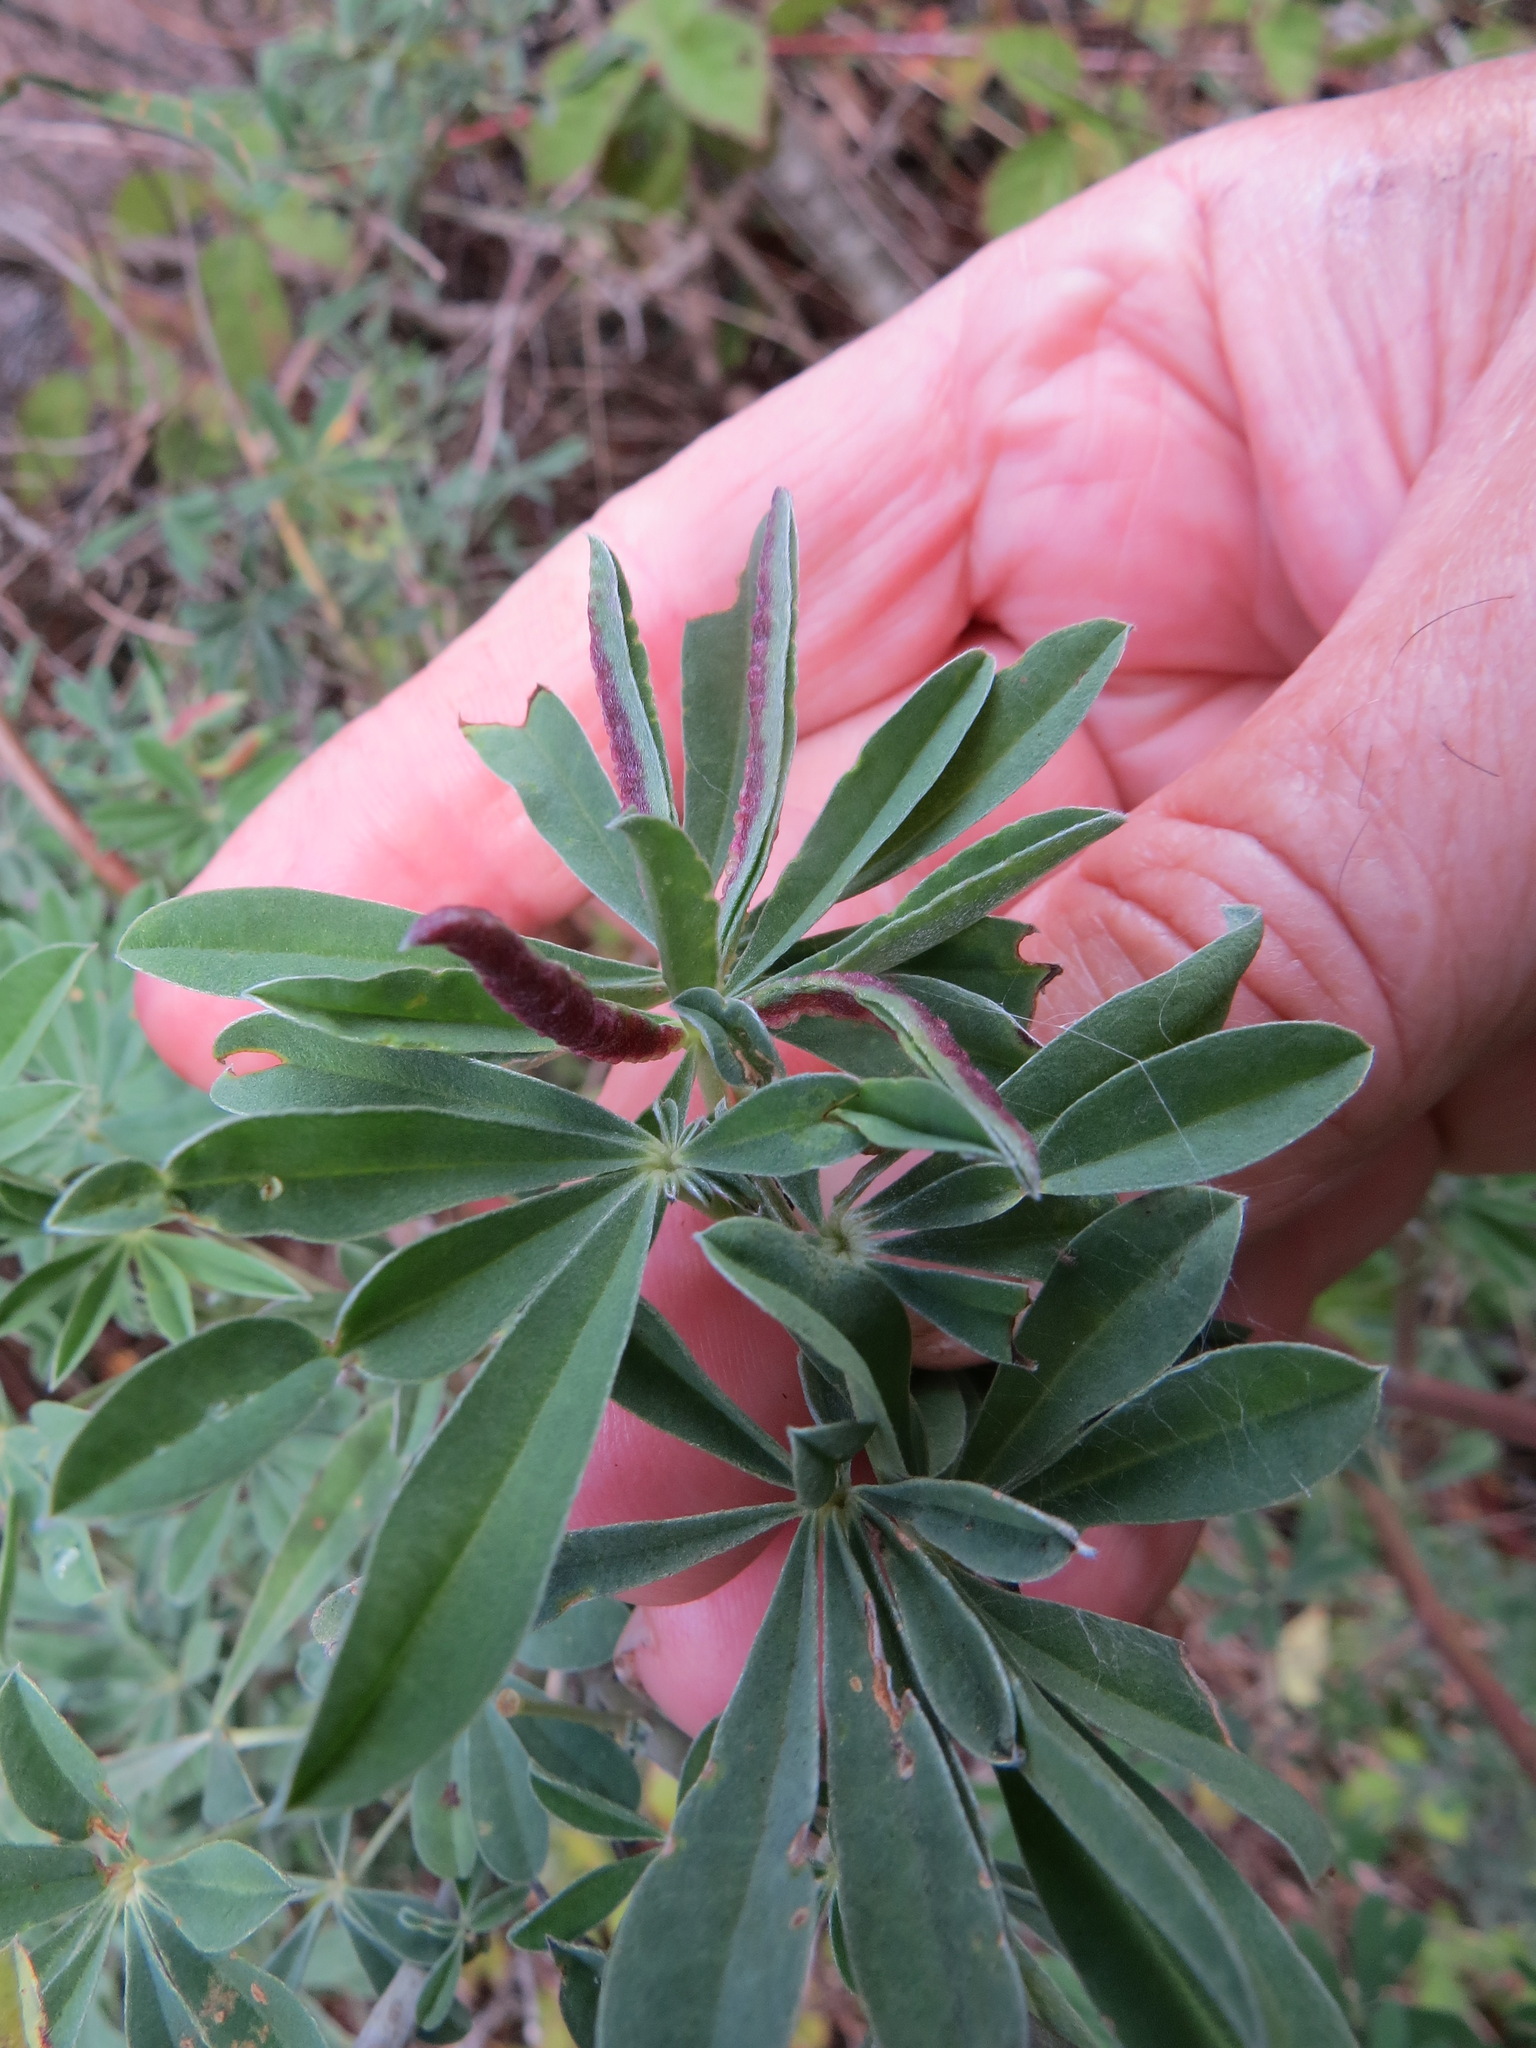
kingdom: Animalia
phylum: Arthropoda
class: Insecta
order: Diptera
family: Cecidomyiidae
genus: Dasineura
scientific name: Dasineura lupinorum
